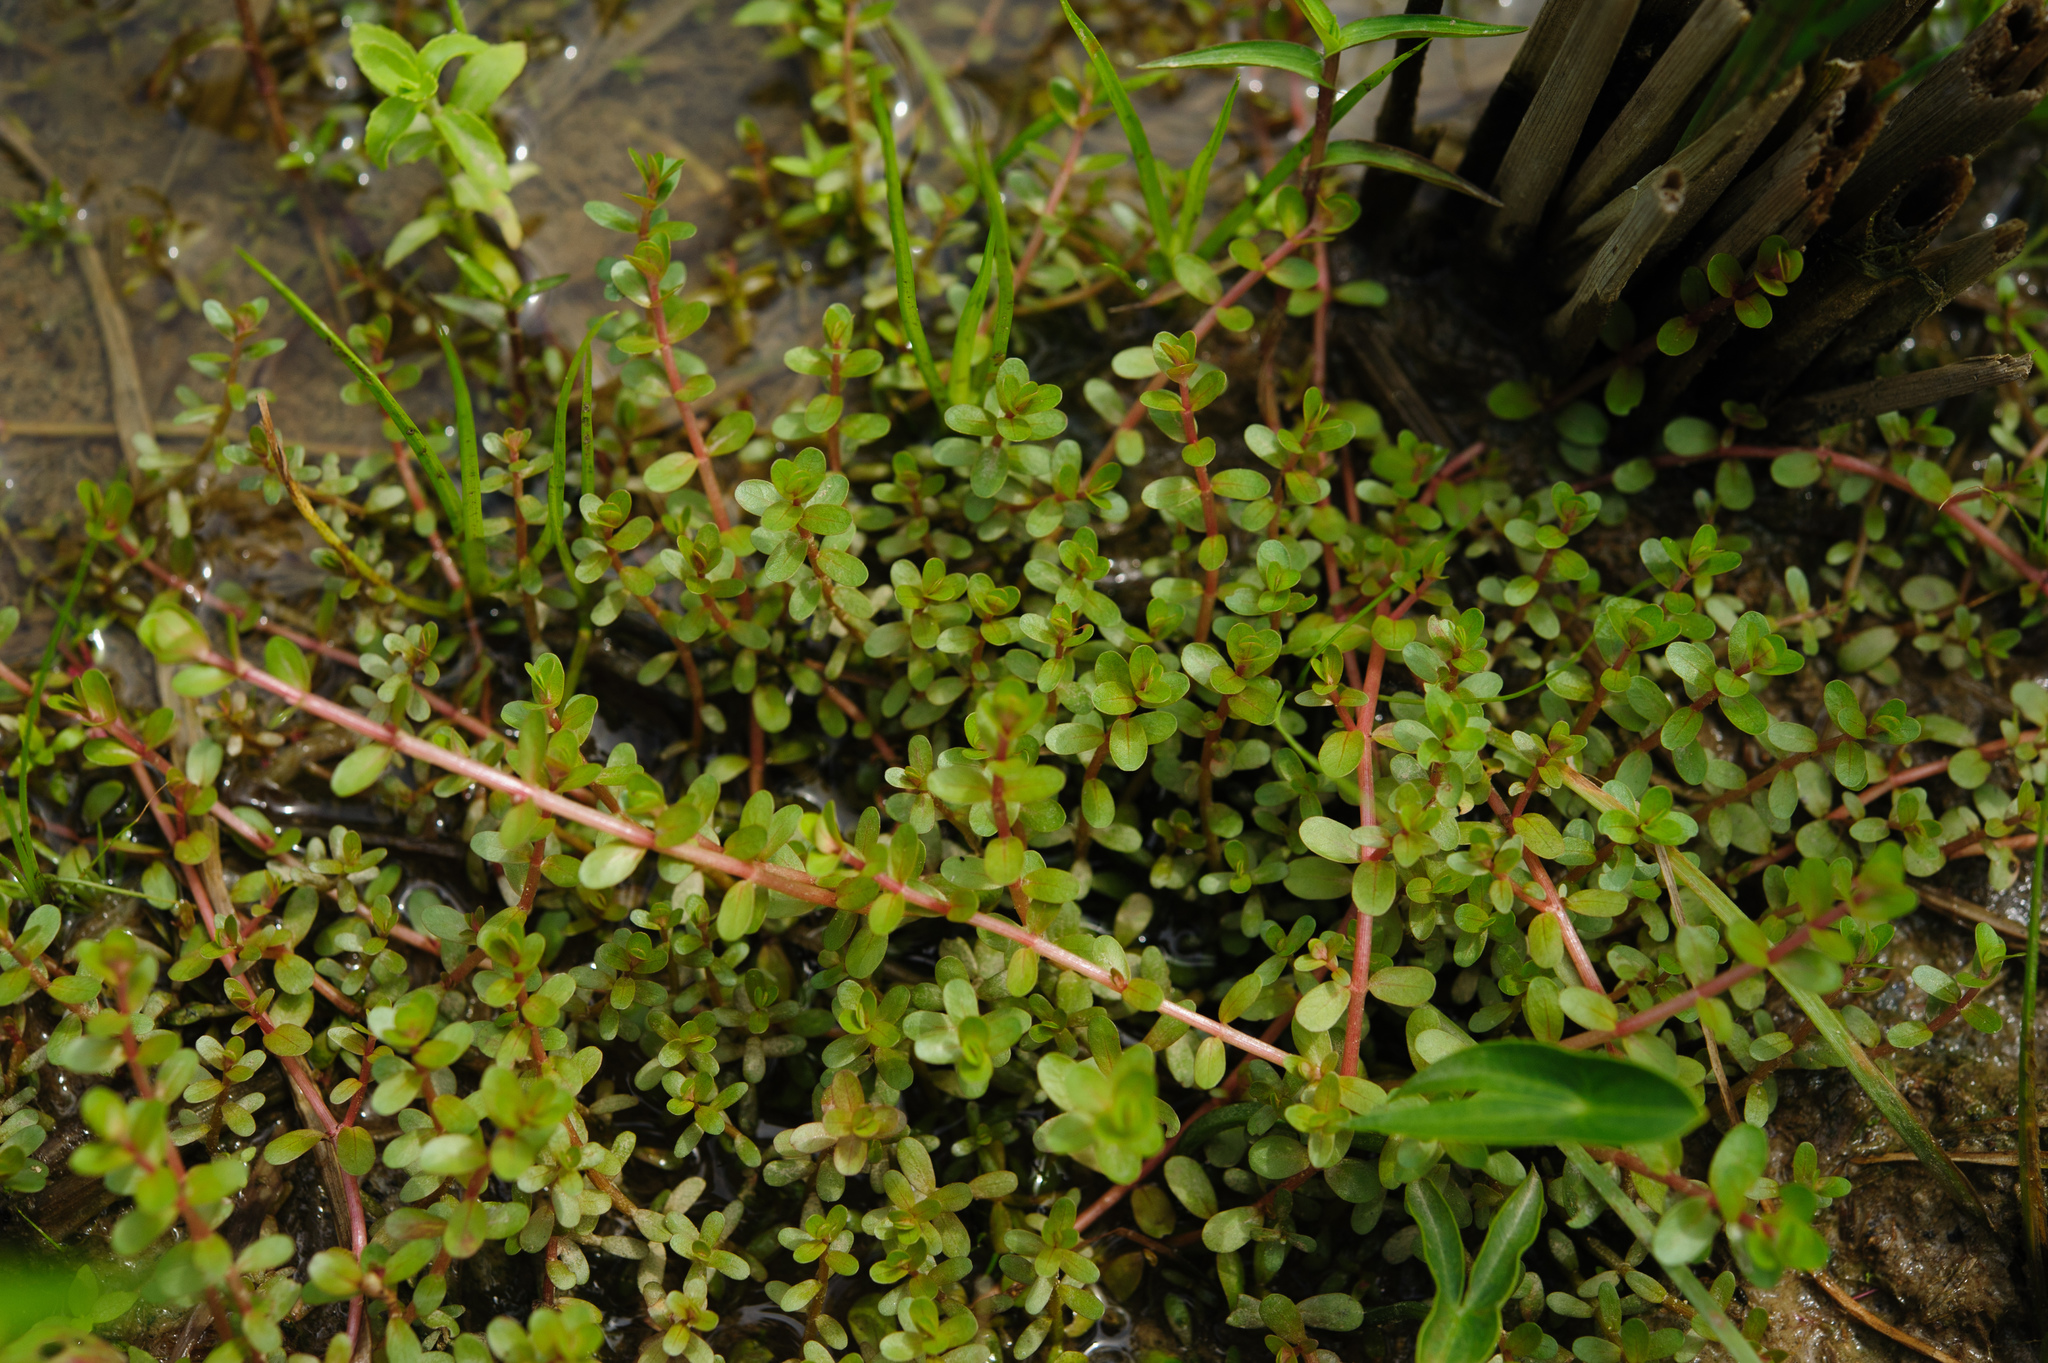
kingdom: Plantae
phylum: Tracheophyta
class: Magnoliopsida
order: Myrtales
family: Lythraceae
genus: Rotala
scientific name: Rotala rotundifolia
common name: Roundleaf toothcup
